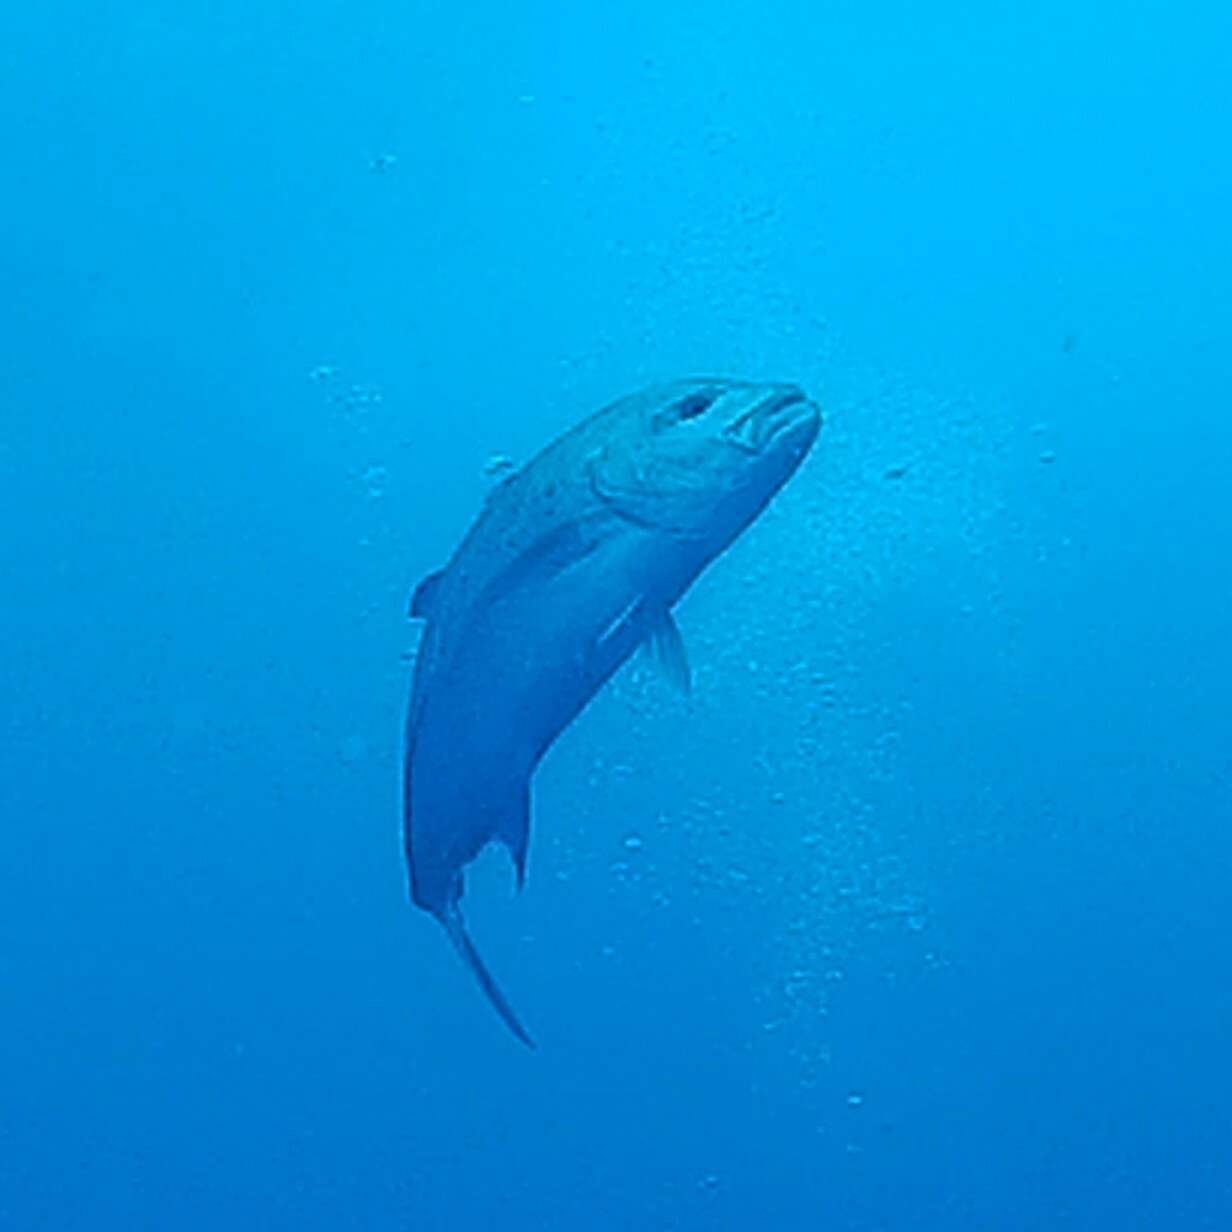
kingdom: Animalia
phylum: Chordata
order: Perciformes
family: Carangidae
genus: Caranx
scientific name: Caranx melampygus
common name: Bluefin trevally
